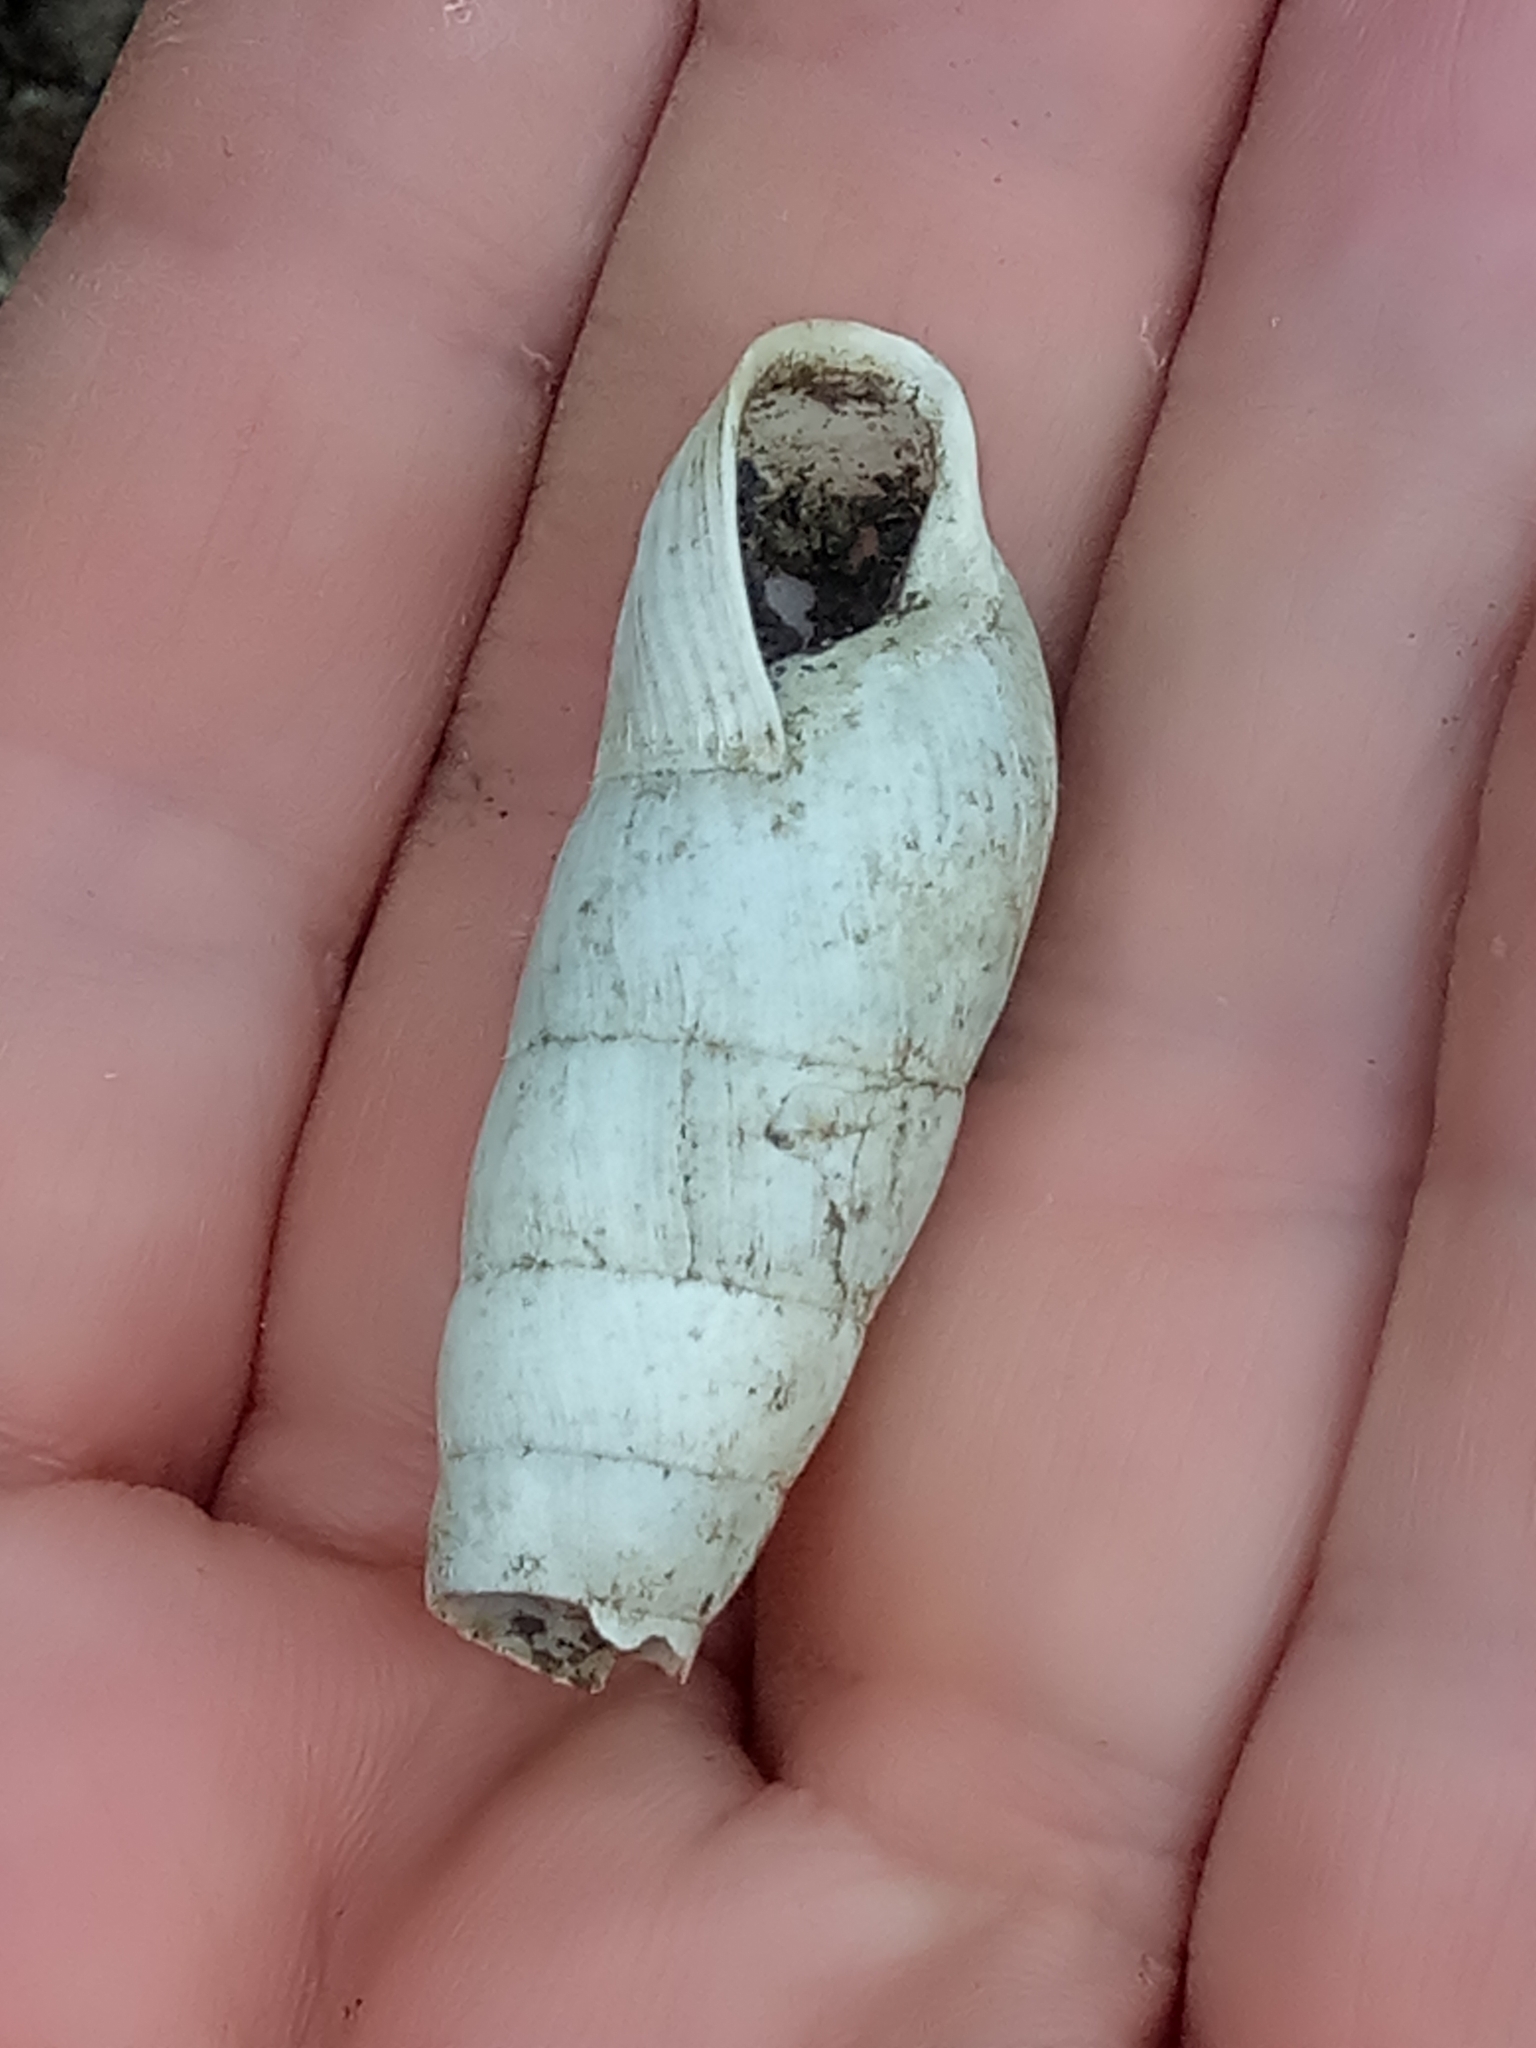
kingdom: Animalia
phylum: Mollusca
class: Gastropoda
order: Stylommatophora
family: Achatinidae
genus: Rumina
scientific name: Rumina decollata
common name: Decollate snail
